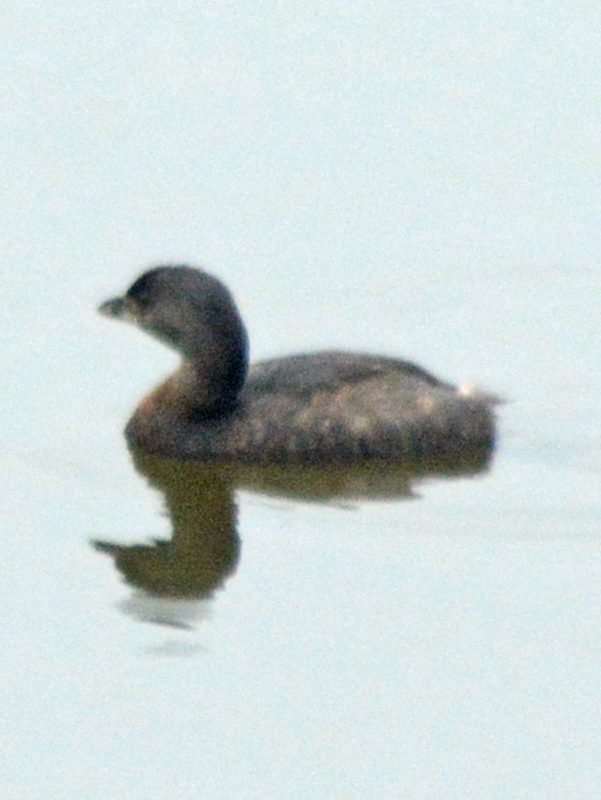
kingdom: Animalia
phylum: Chordata
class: Aves
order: Podicipediformes
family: Podicipedidae
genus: Podilymbus
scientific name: Podilymbus podiceps
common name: Pied-billed grebe
